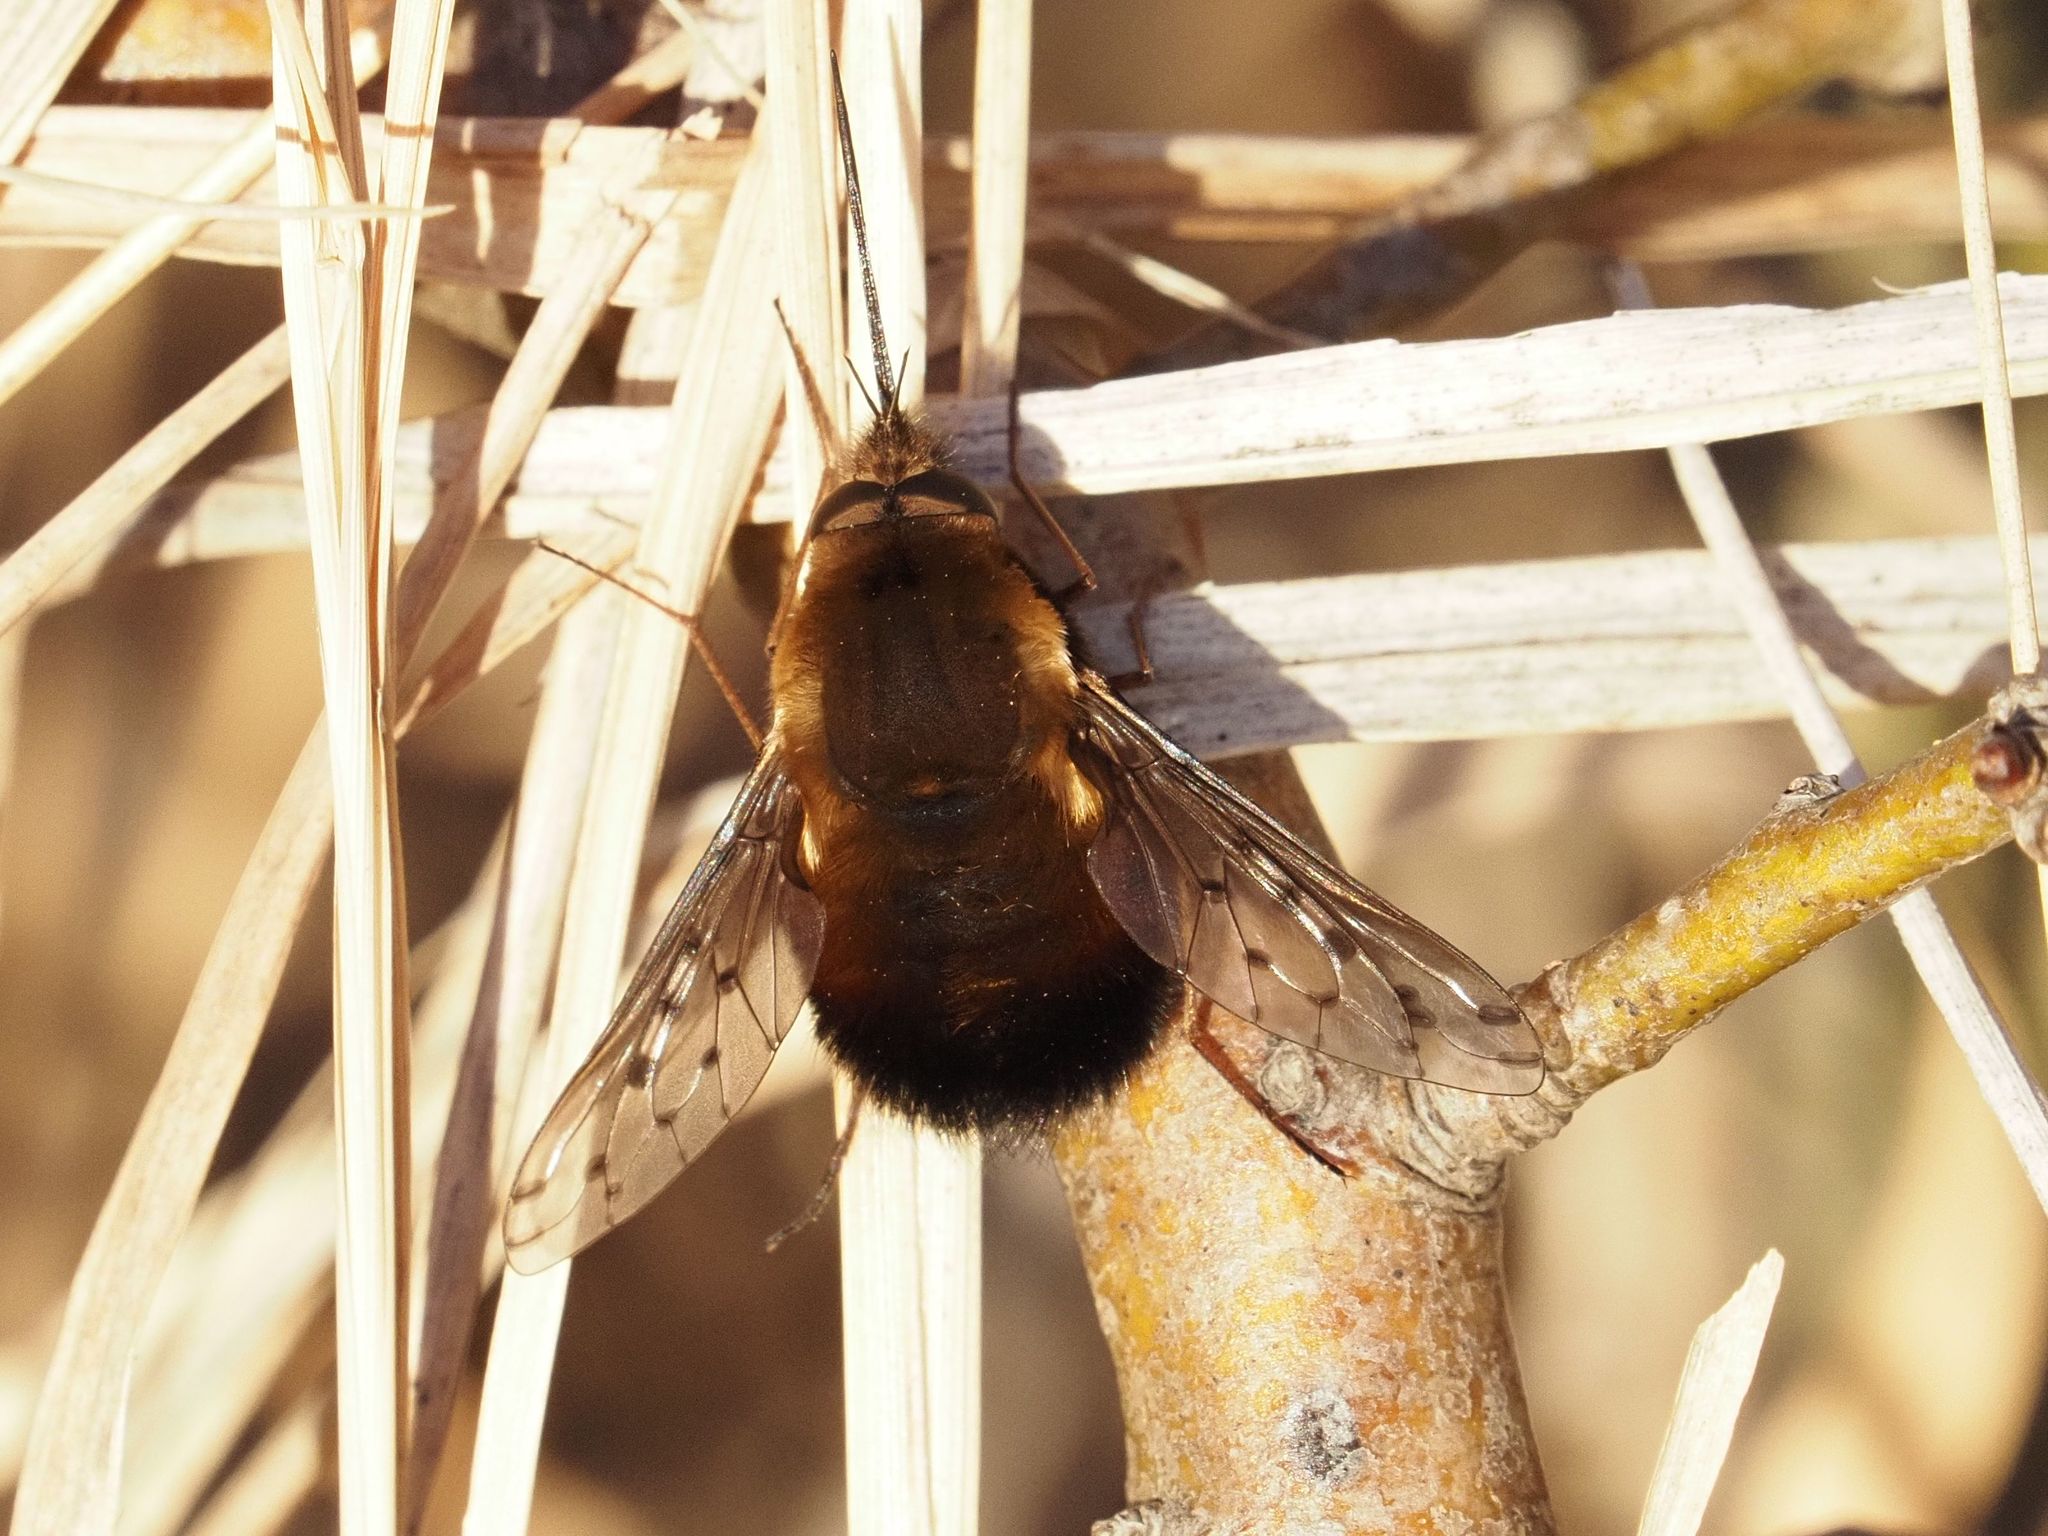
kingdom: Animalia
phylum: Arthropoda
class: Insecta
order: Diptera
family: Bombyliidae
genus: Bombylius
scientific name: Bombylius discolor
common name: Dotted bee-fly
